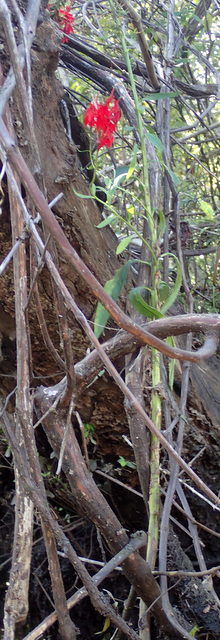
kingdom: Plantae
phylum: Tracheophyta
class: Magnoliopsida
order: Asterales
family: Campanulaceae
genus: Lobelia
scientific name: Lobelia cardinalis
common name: Cardinal flower
